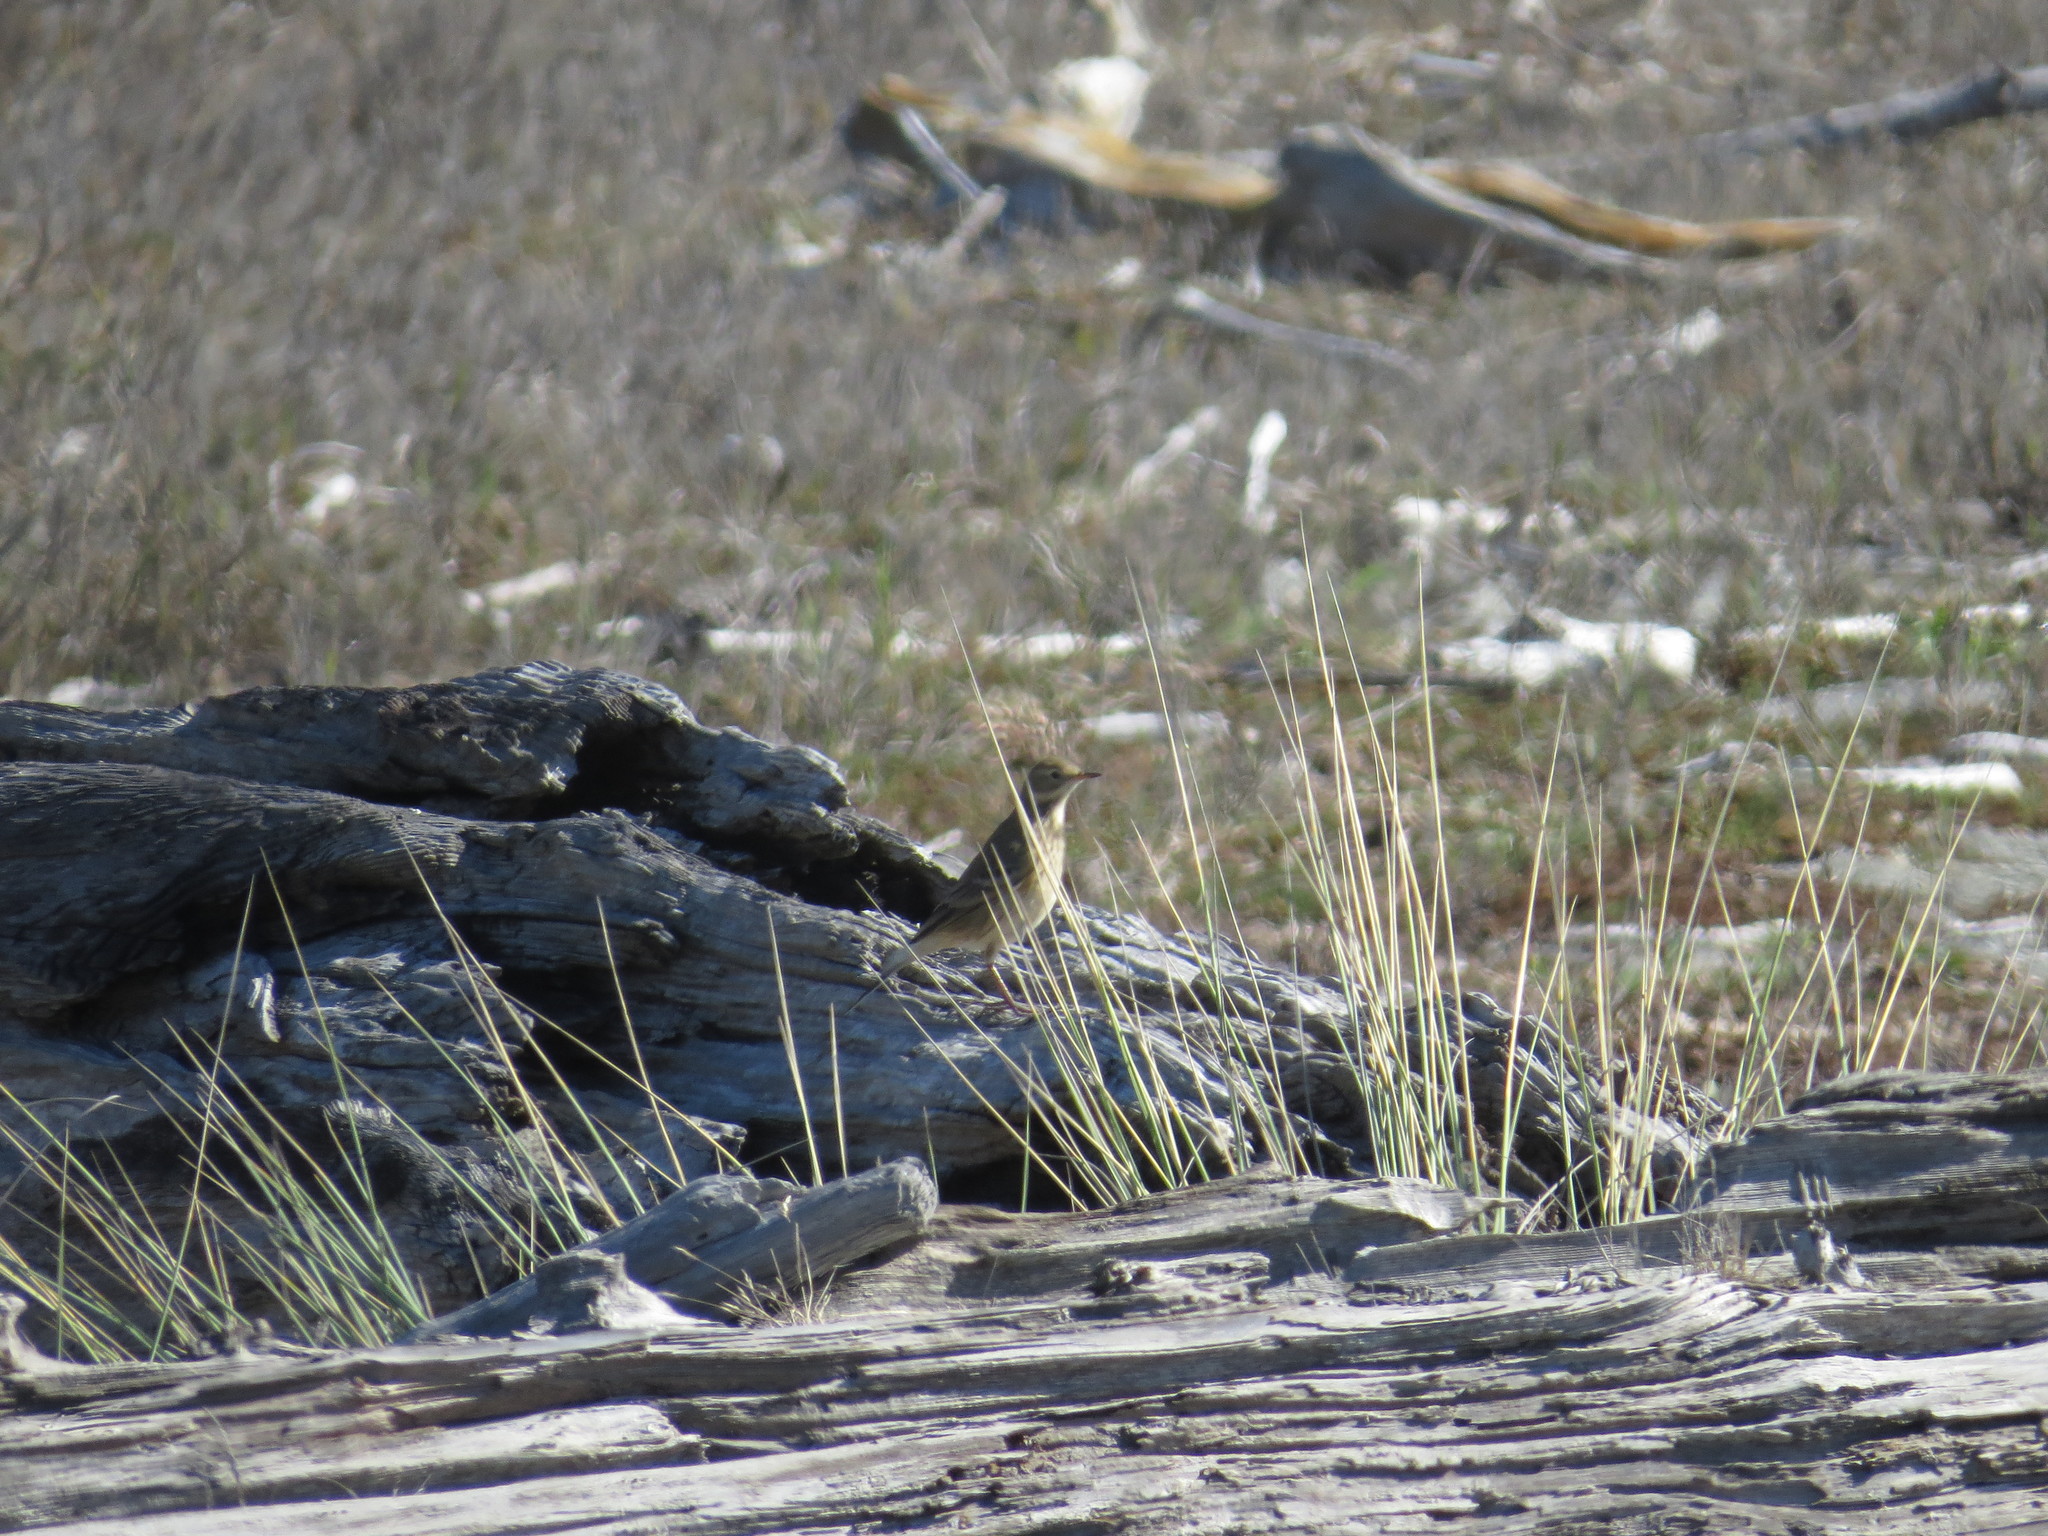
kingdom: Animalia
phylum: Chordata
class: Aves
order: Passeriformes
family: Motacillidae
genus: Anthus
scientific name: Anthus rubescens
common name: Buff-bellied pipit
